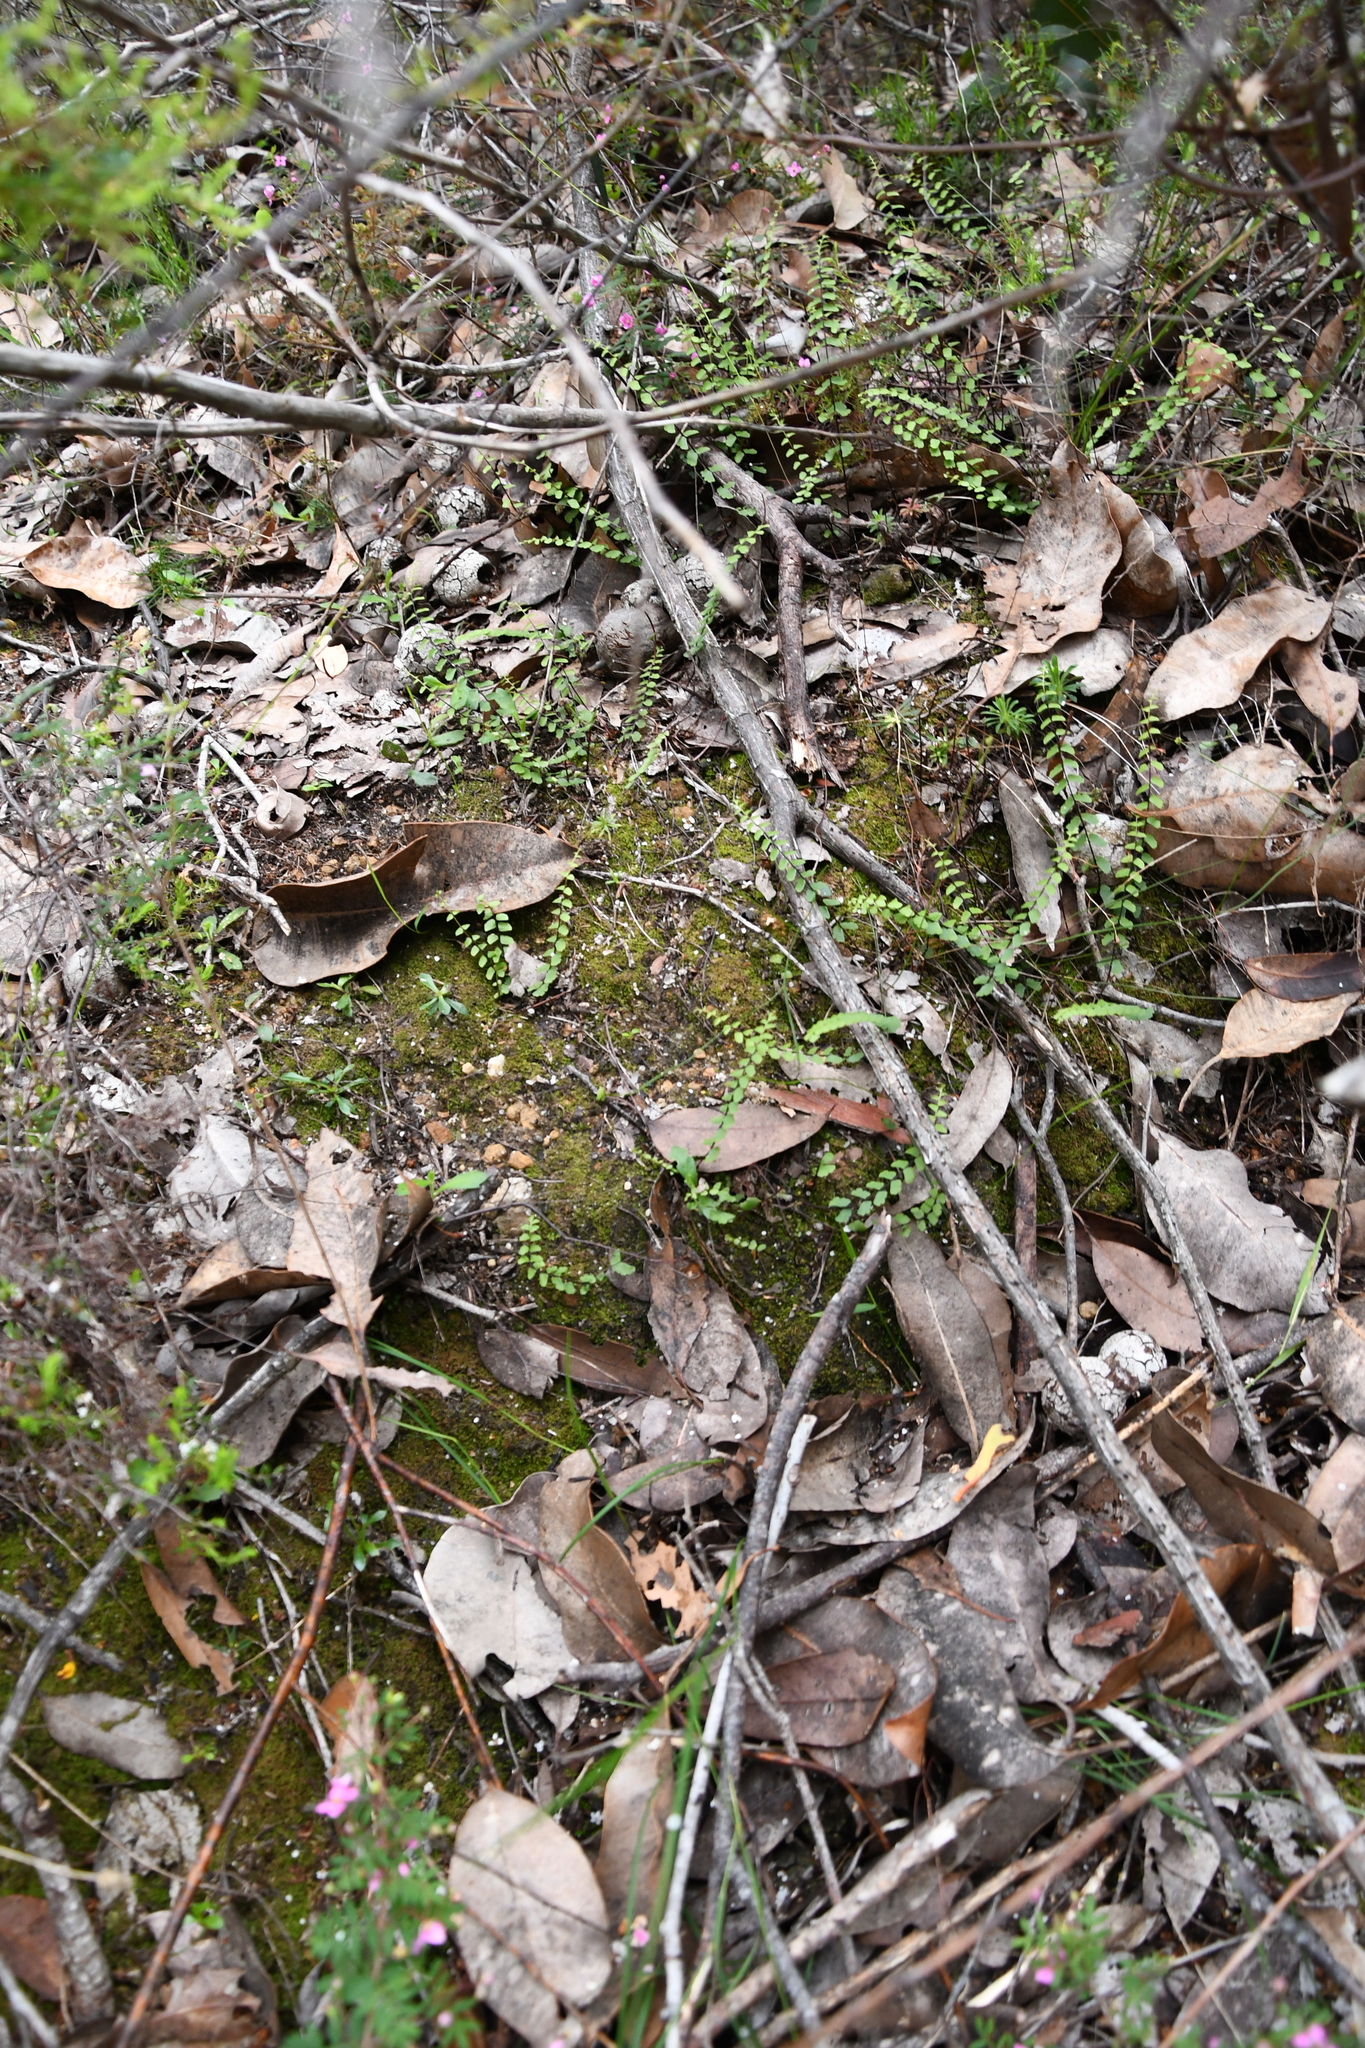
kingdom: Plantae
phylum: Tracheophyta
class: Polypodiopsida
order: Polypodiales
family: Lindsaeaceae
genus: Lindsaea
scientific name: Lindsaea linearis
